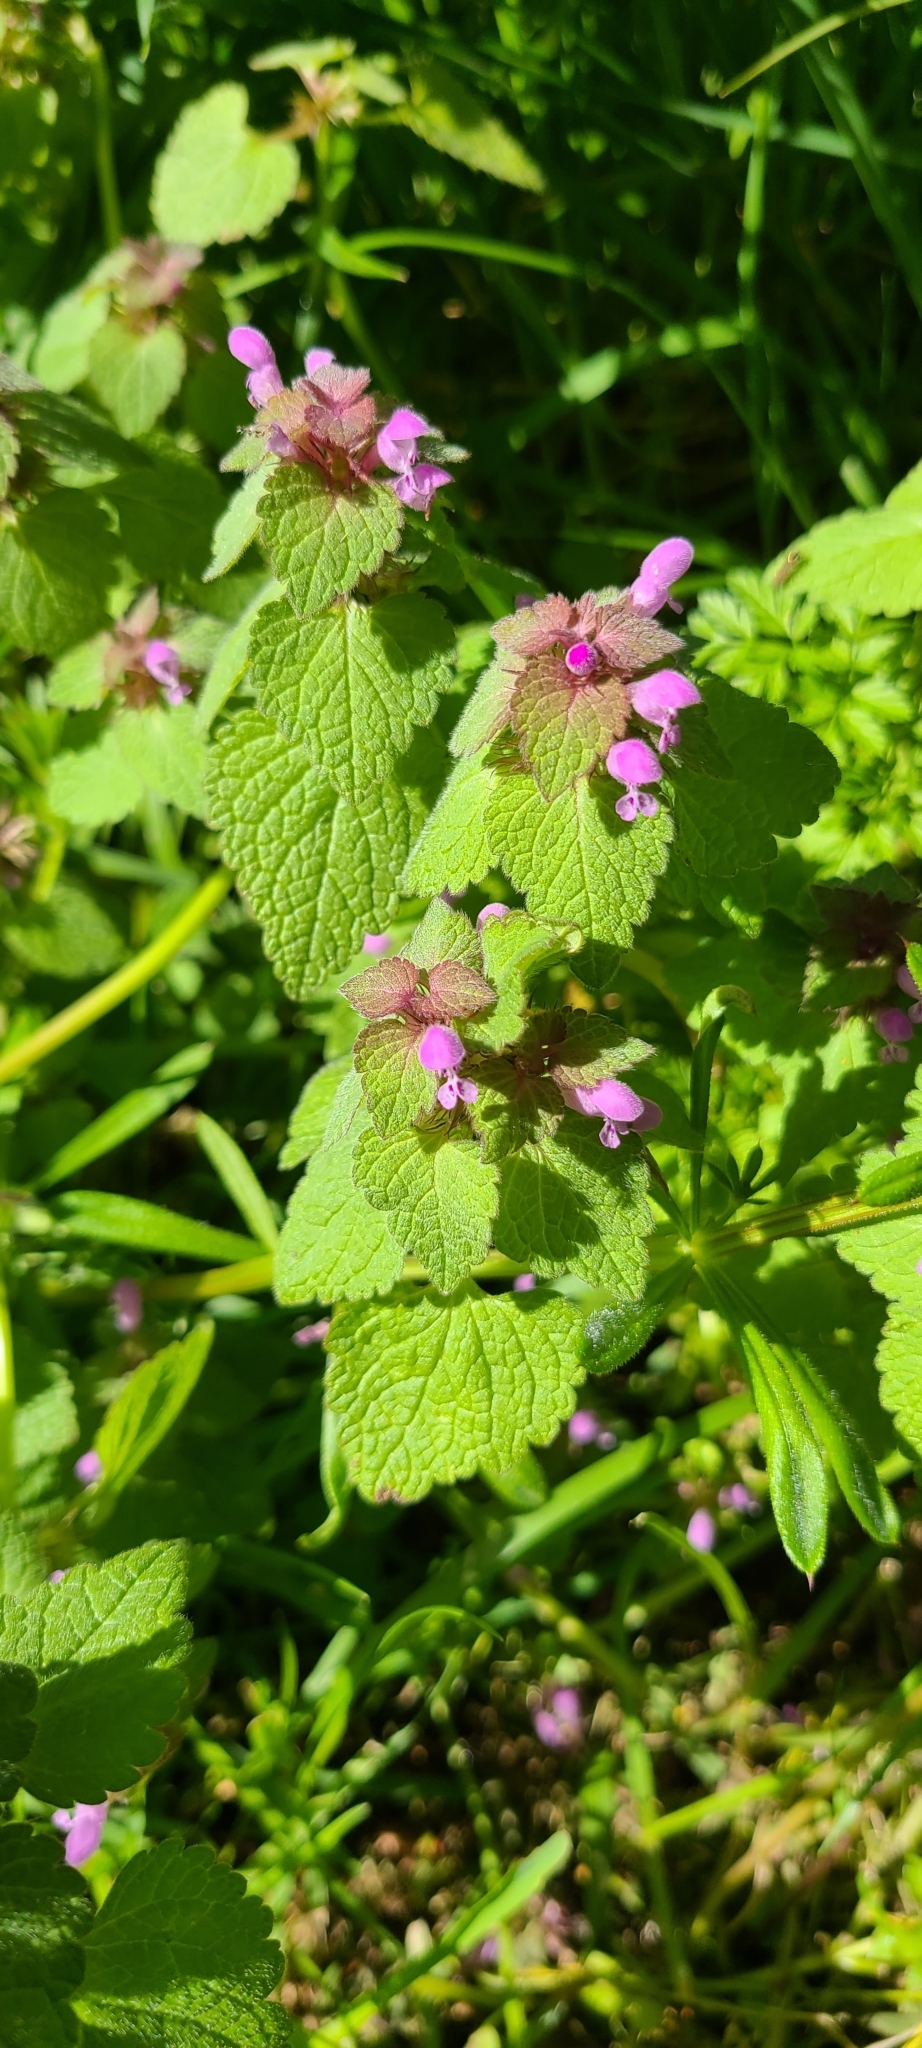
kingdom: Plantae
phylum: Tracheophyta
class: Magnoliopsida
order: Lamiales
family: Lamiaceae
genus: Lamium
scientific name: Lamium purpureum
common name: Red dead-nettle
